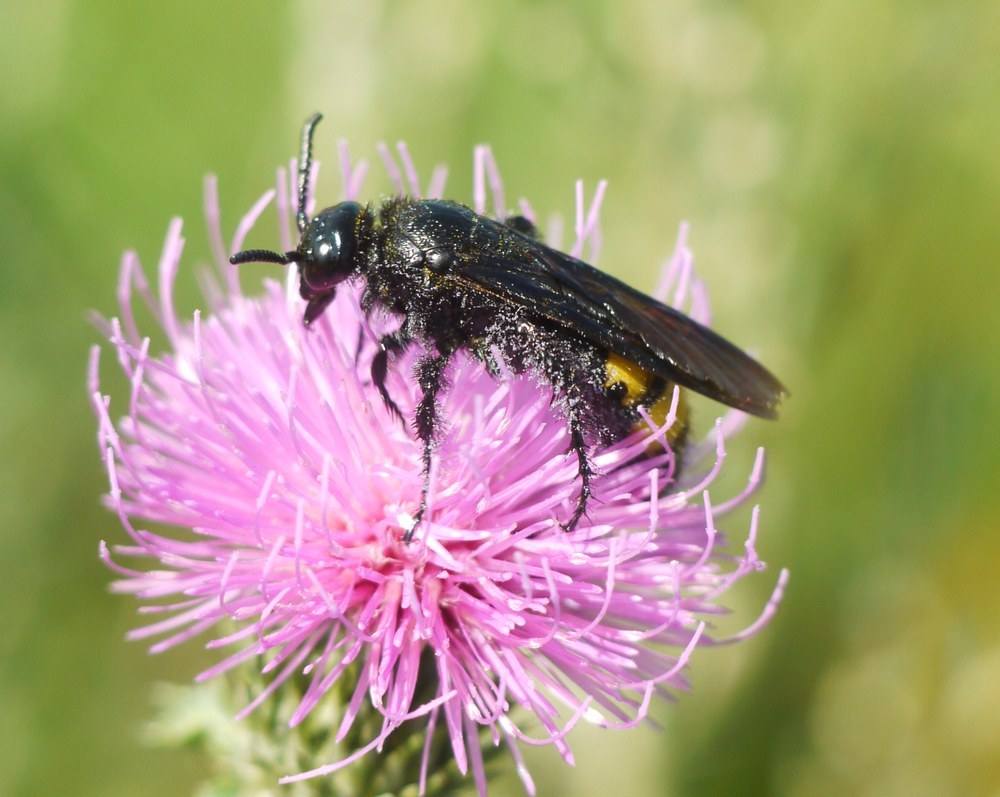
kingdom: Animalia
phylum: Arthropoda
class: Insecta
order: Hymenoptera
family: Scoliidae
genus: Scolia
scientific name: Scolia hirta
